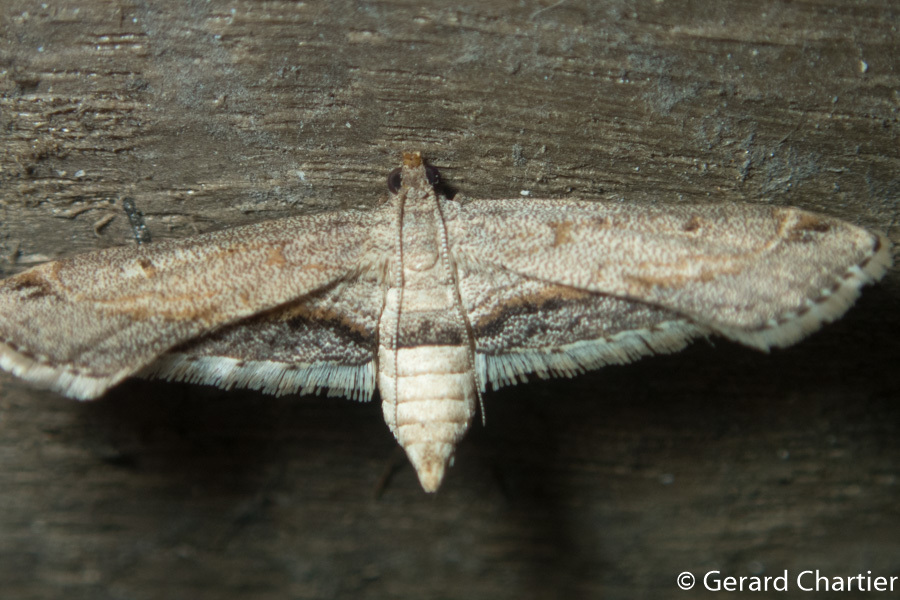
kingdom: Animalia
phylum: Arthropoda
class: Insecta
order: Lepidoptera
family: Crambidae
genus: Parapoynx
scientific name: Parapoynx longialata
